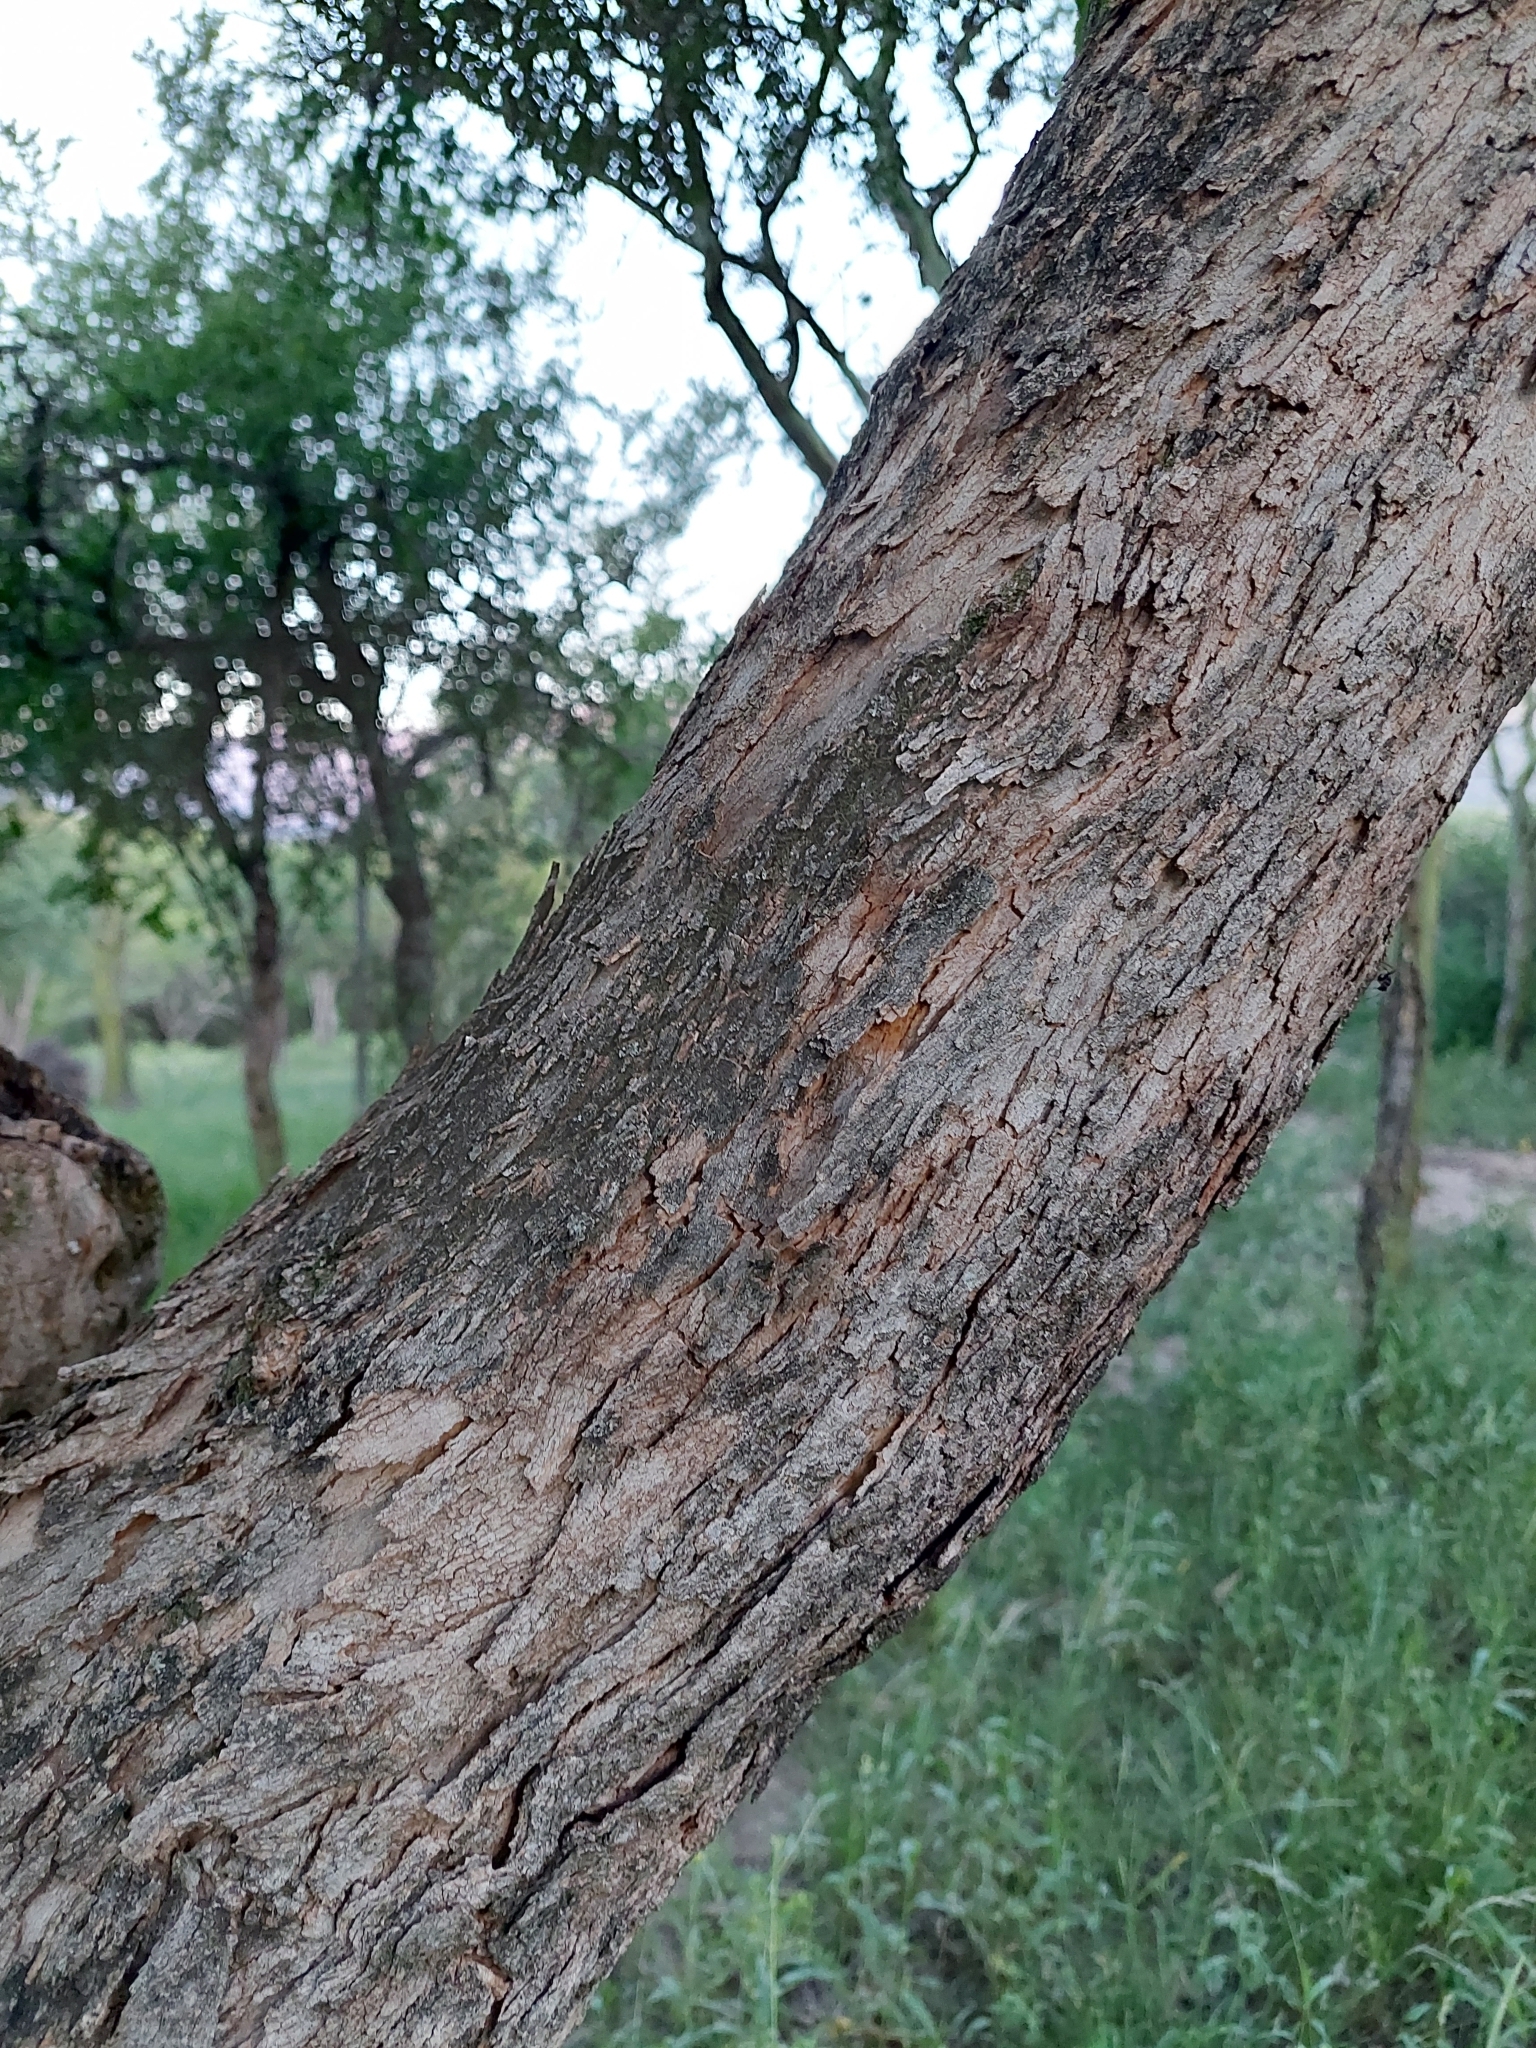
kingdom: Plantae
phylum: Tracheophyta
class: Magnoliopsida
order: Rosales
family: Cannabaceae
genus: Celtis
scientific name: Celtis tala
